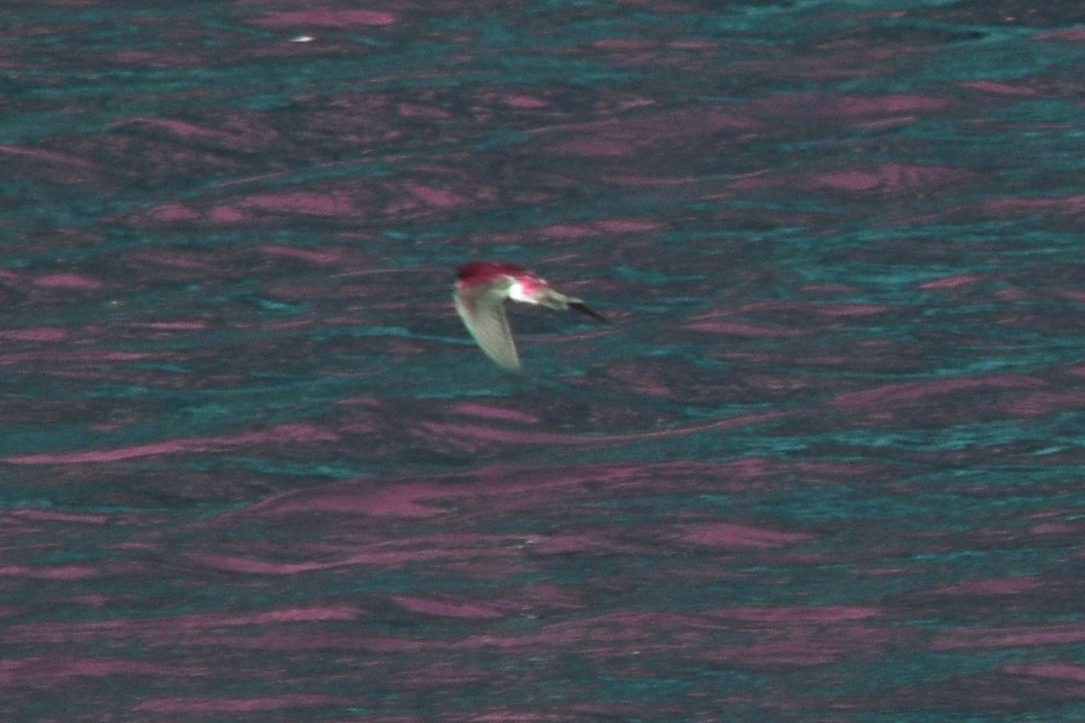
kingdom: Animalia
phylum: Chordata
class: Aves
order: Passeriformes
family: Hirundinidae
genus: Tachycineta
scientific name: Tachycineta bicolor
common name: Tree swallow
